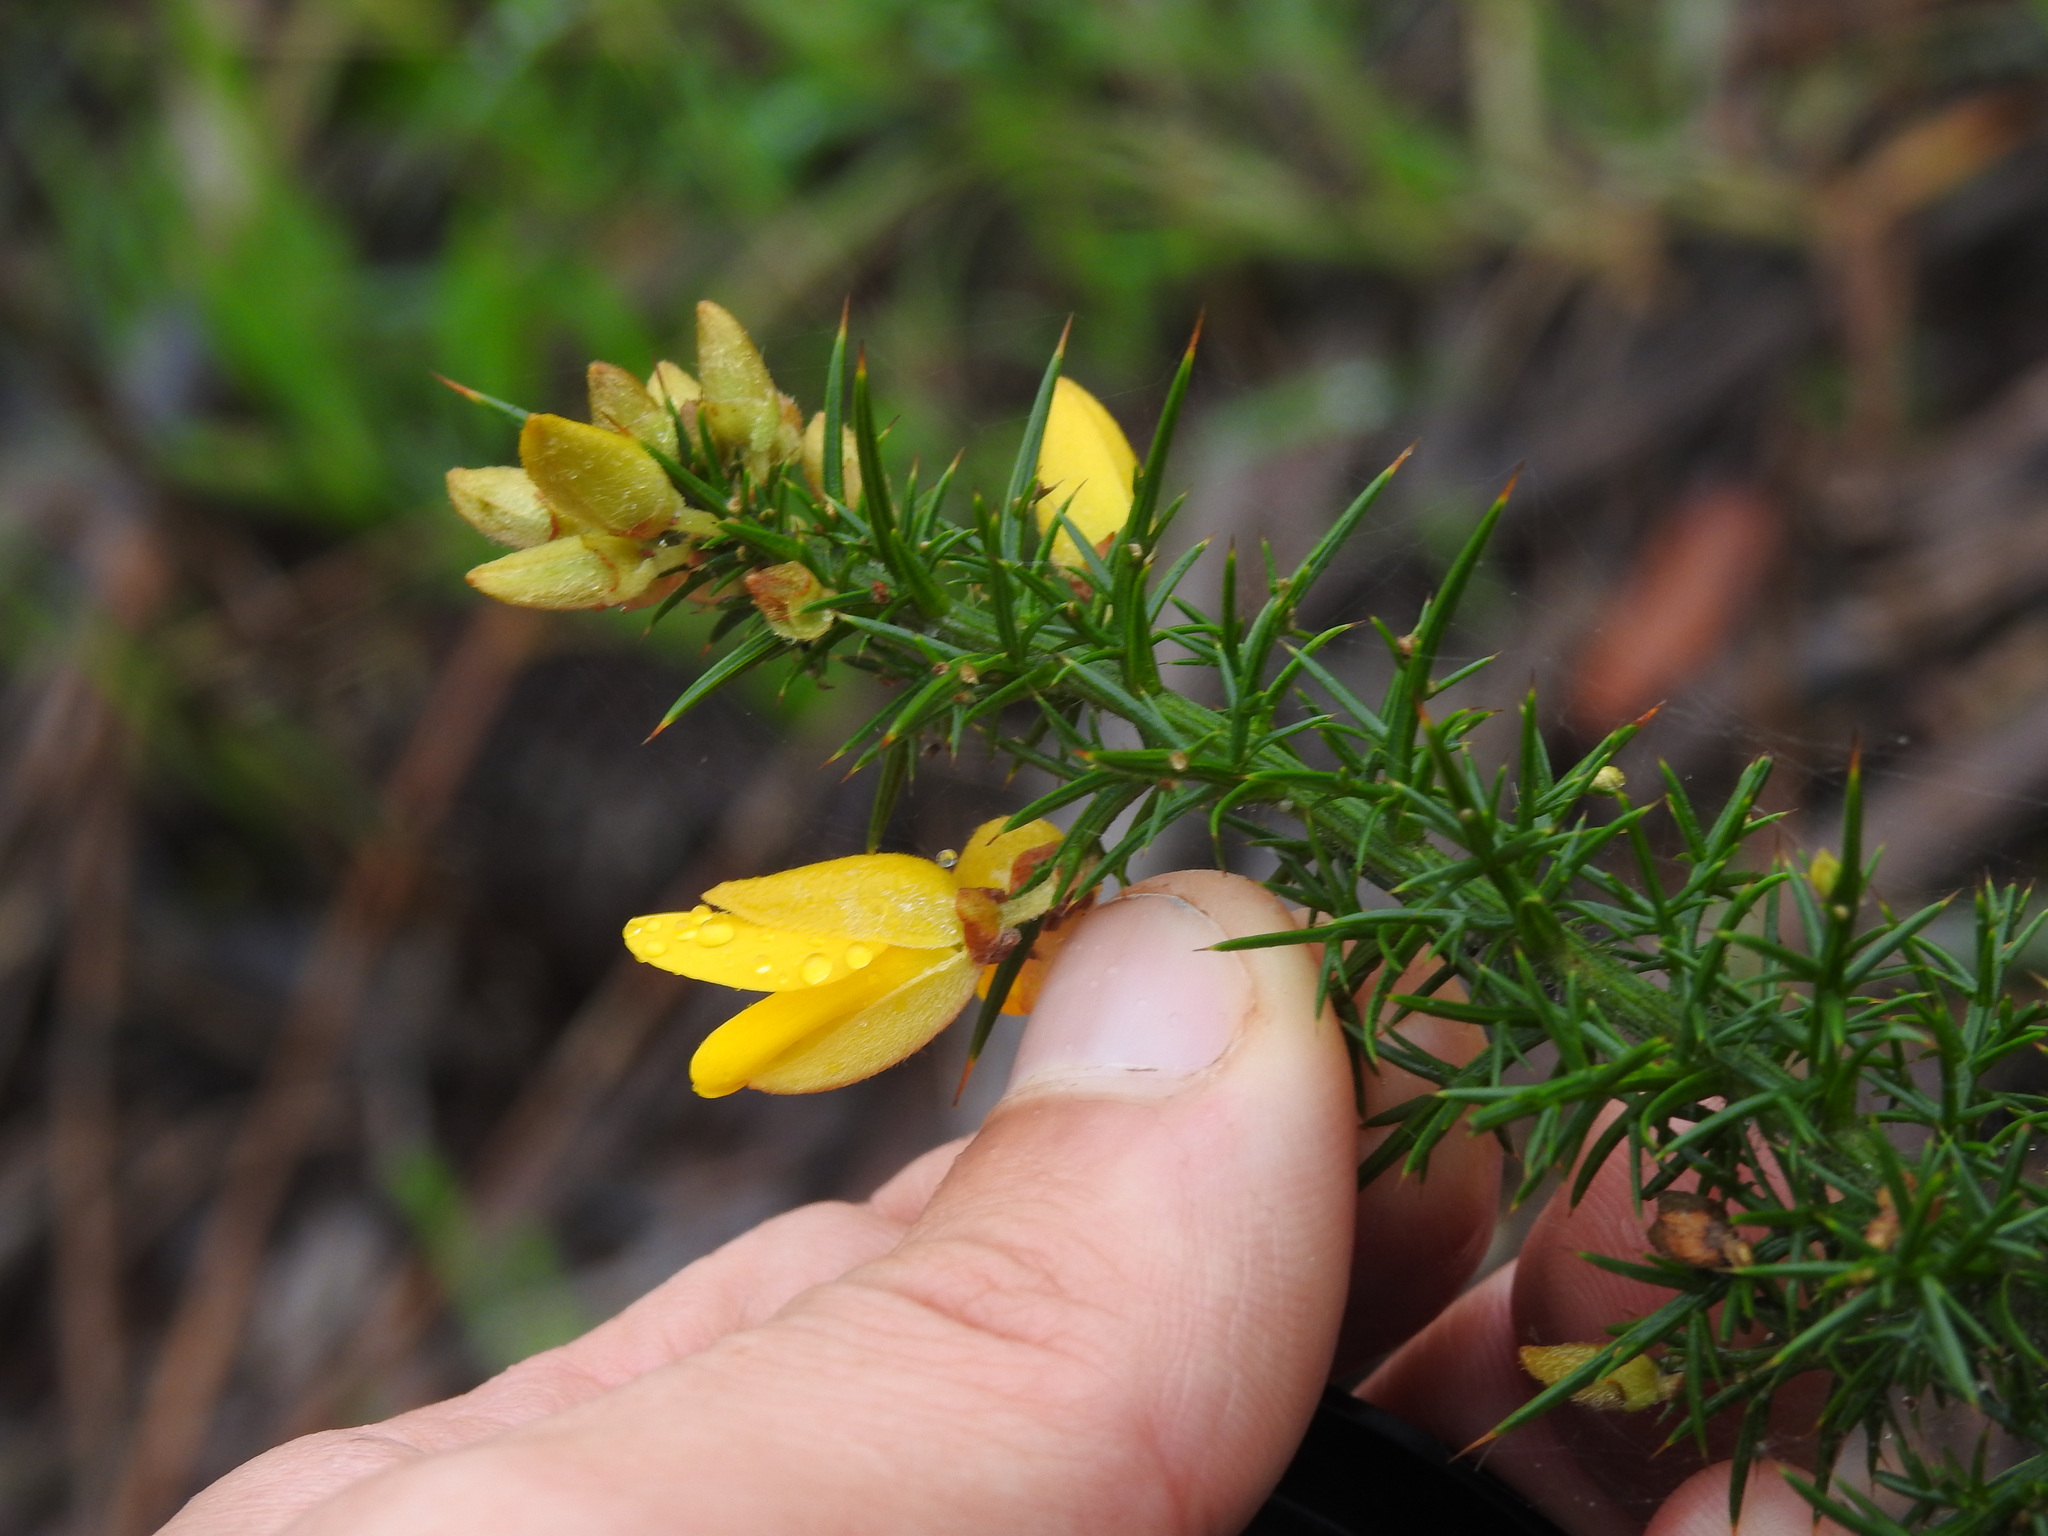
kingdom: Plantae
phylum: Tracheophyta
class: Magnoliopsida
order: Fabales
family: Fabaceae
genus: Ulex
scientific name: Ulex europaeus
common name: Common gorse
